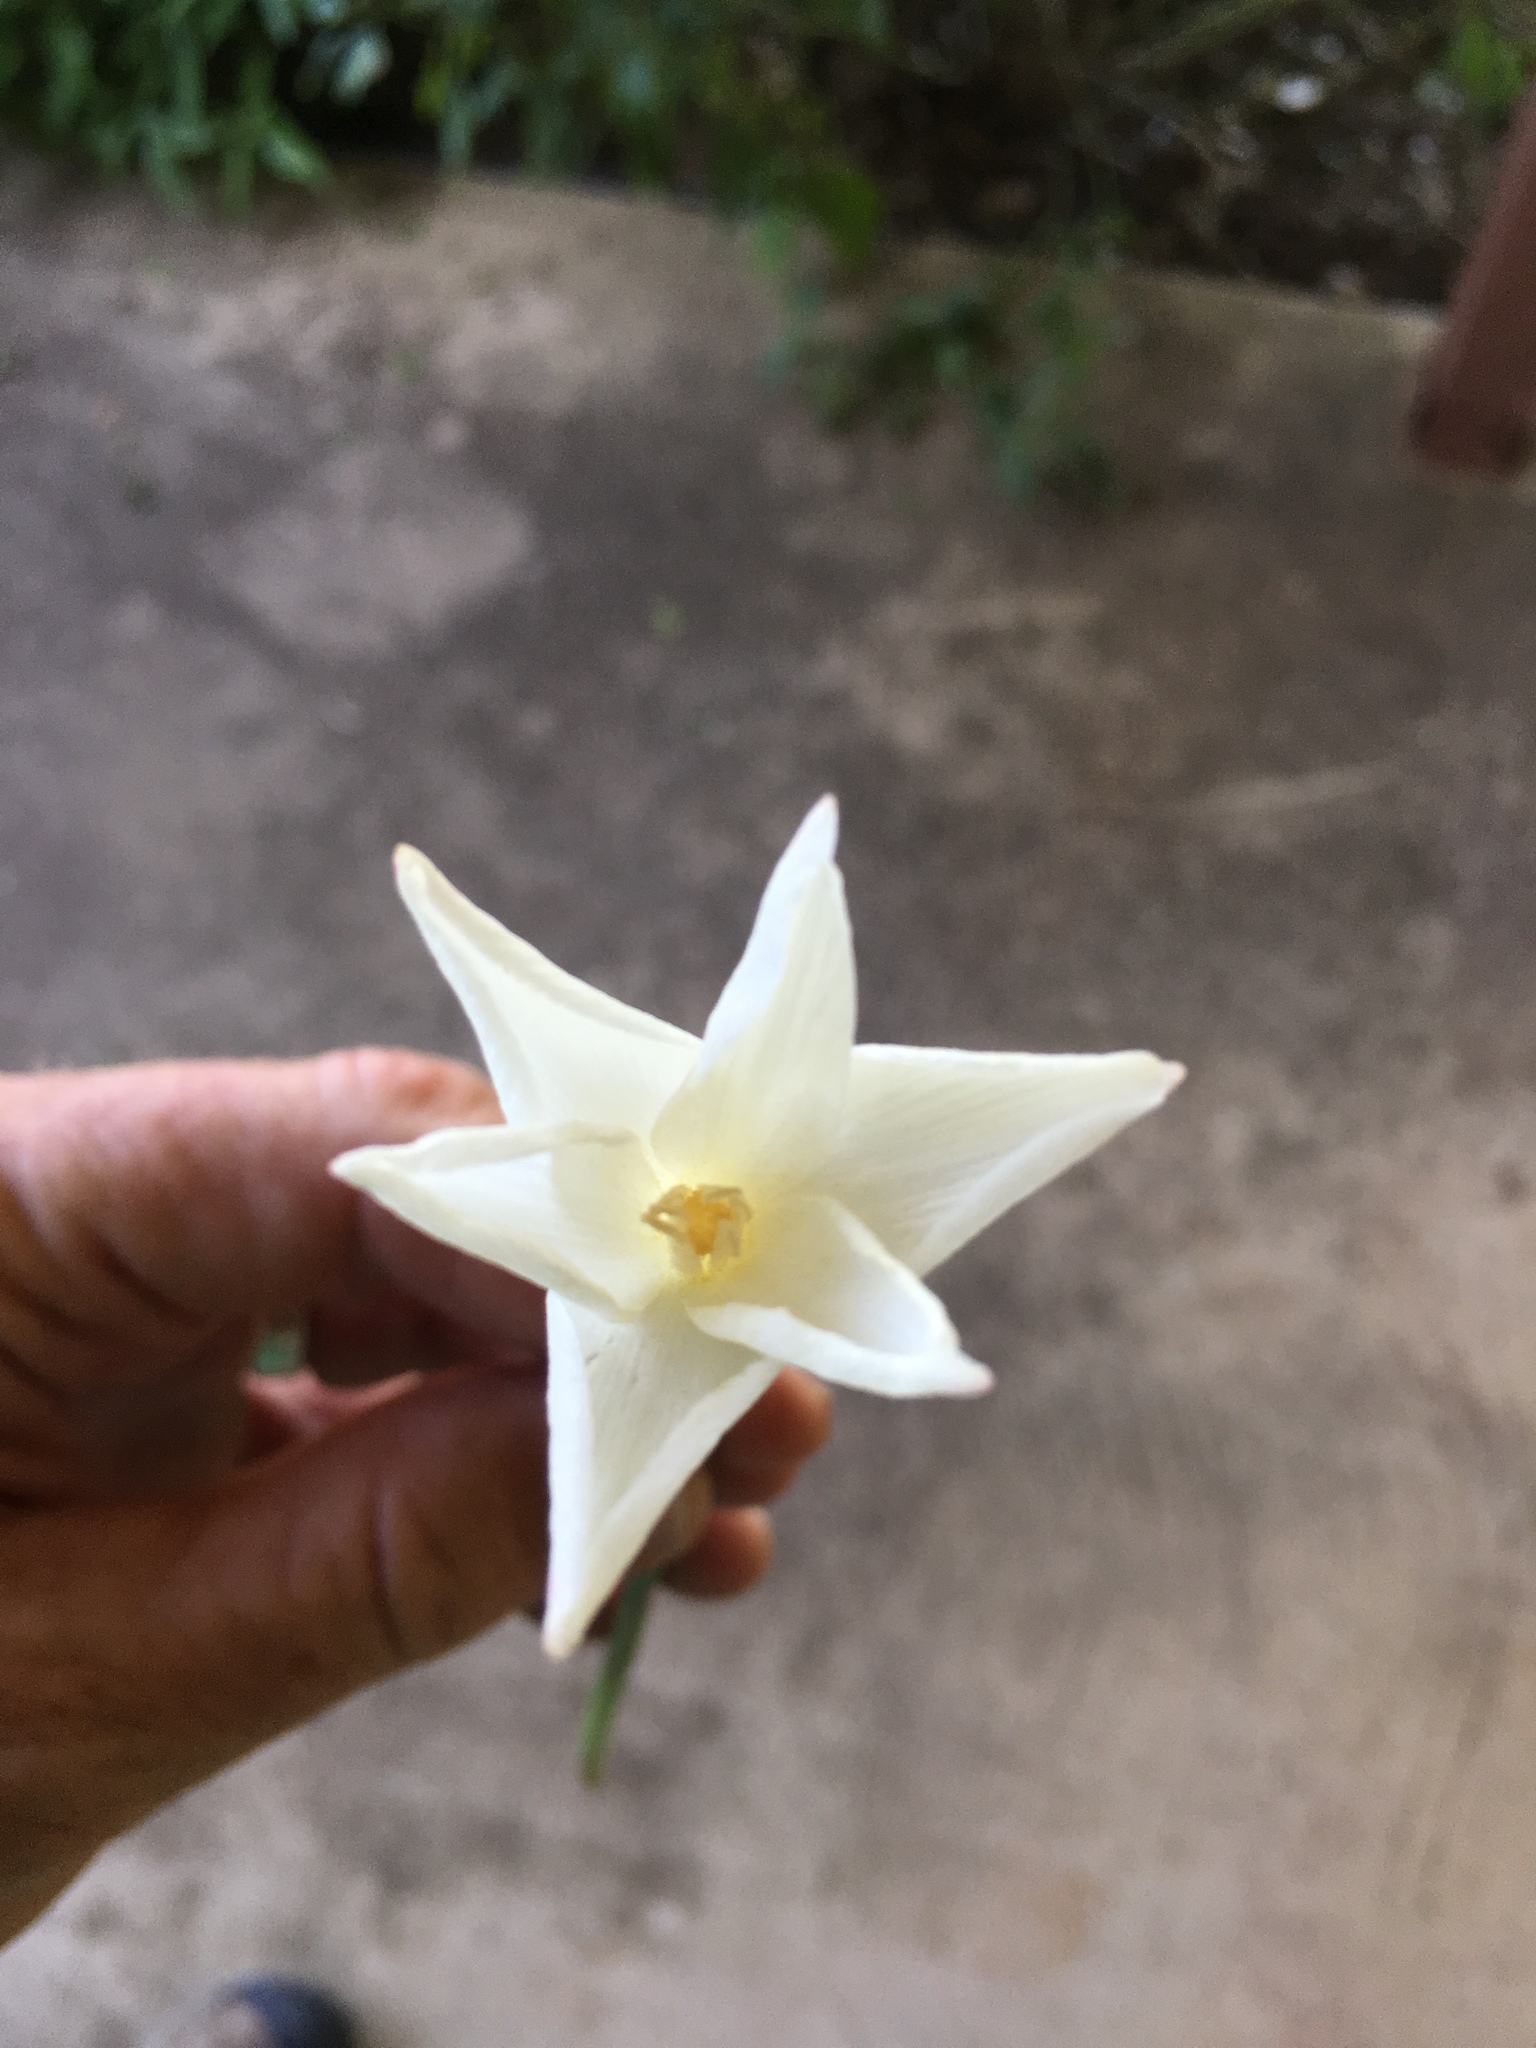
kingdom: Plantae
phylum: Tracheophyta
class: Liliopsida
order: Asparagales
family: Amaryllidaceae
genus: Zephyranthes
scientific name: Zephyranthes chlorosolen
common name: Evening rain-lily
